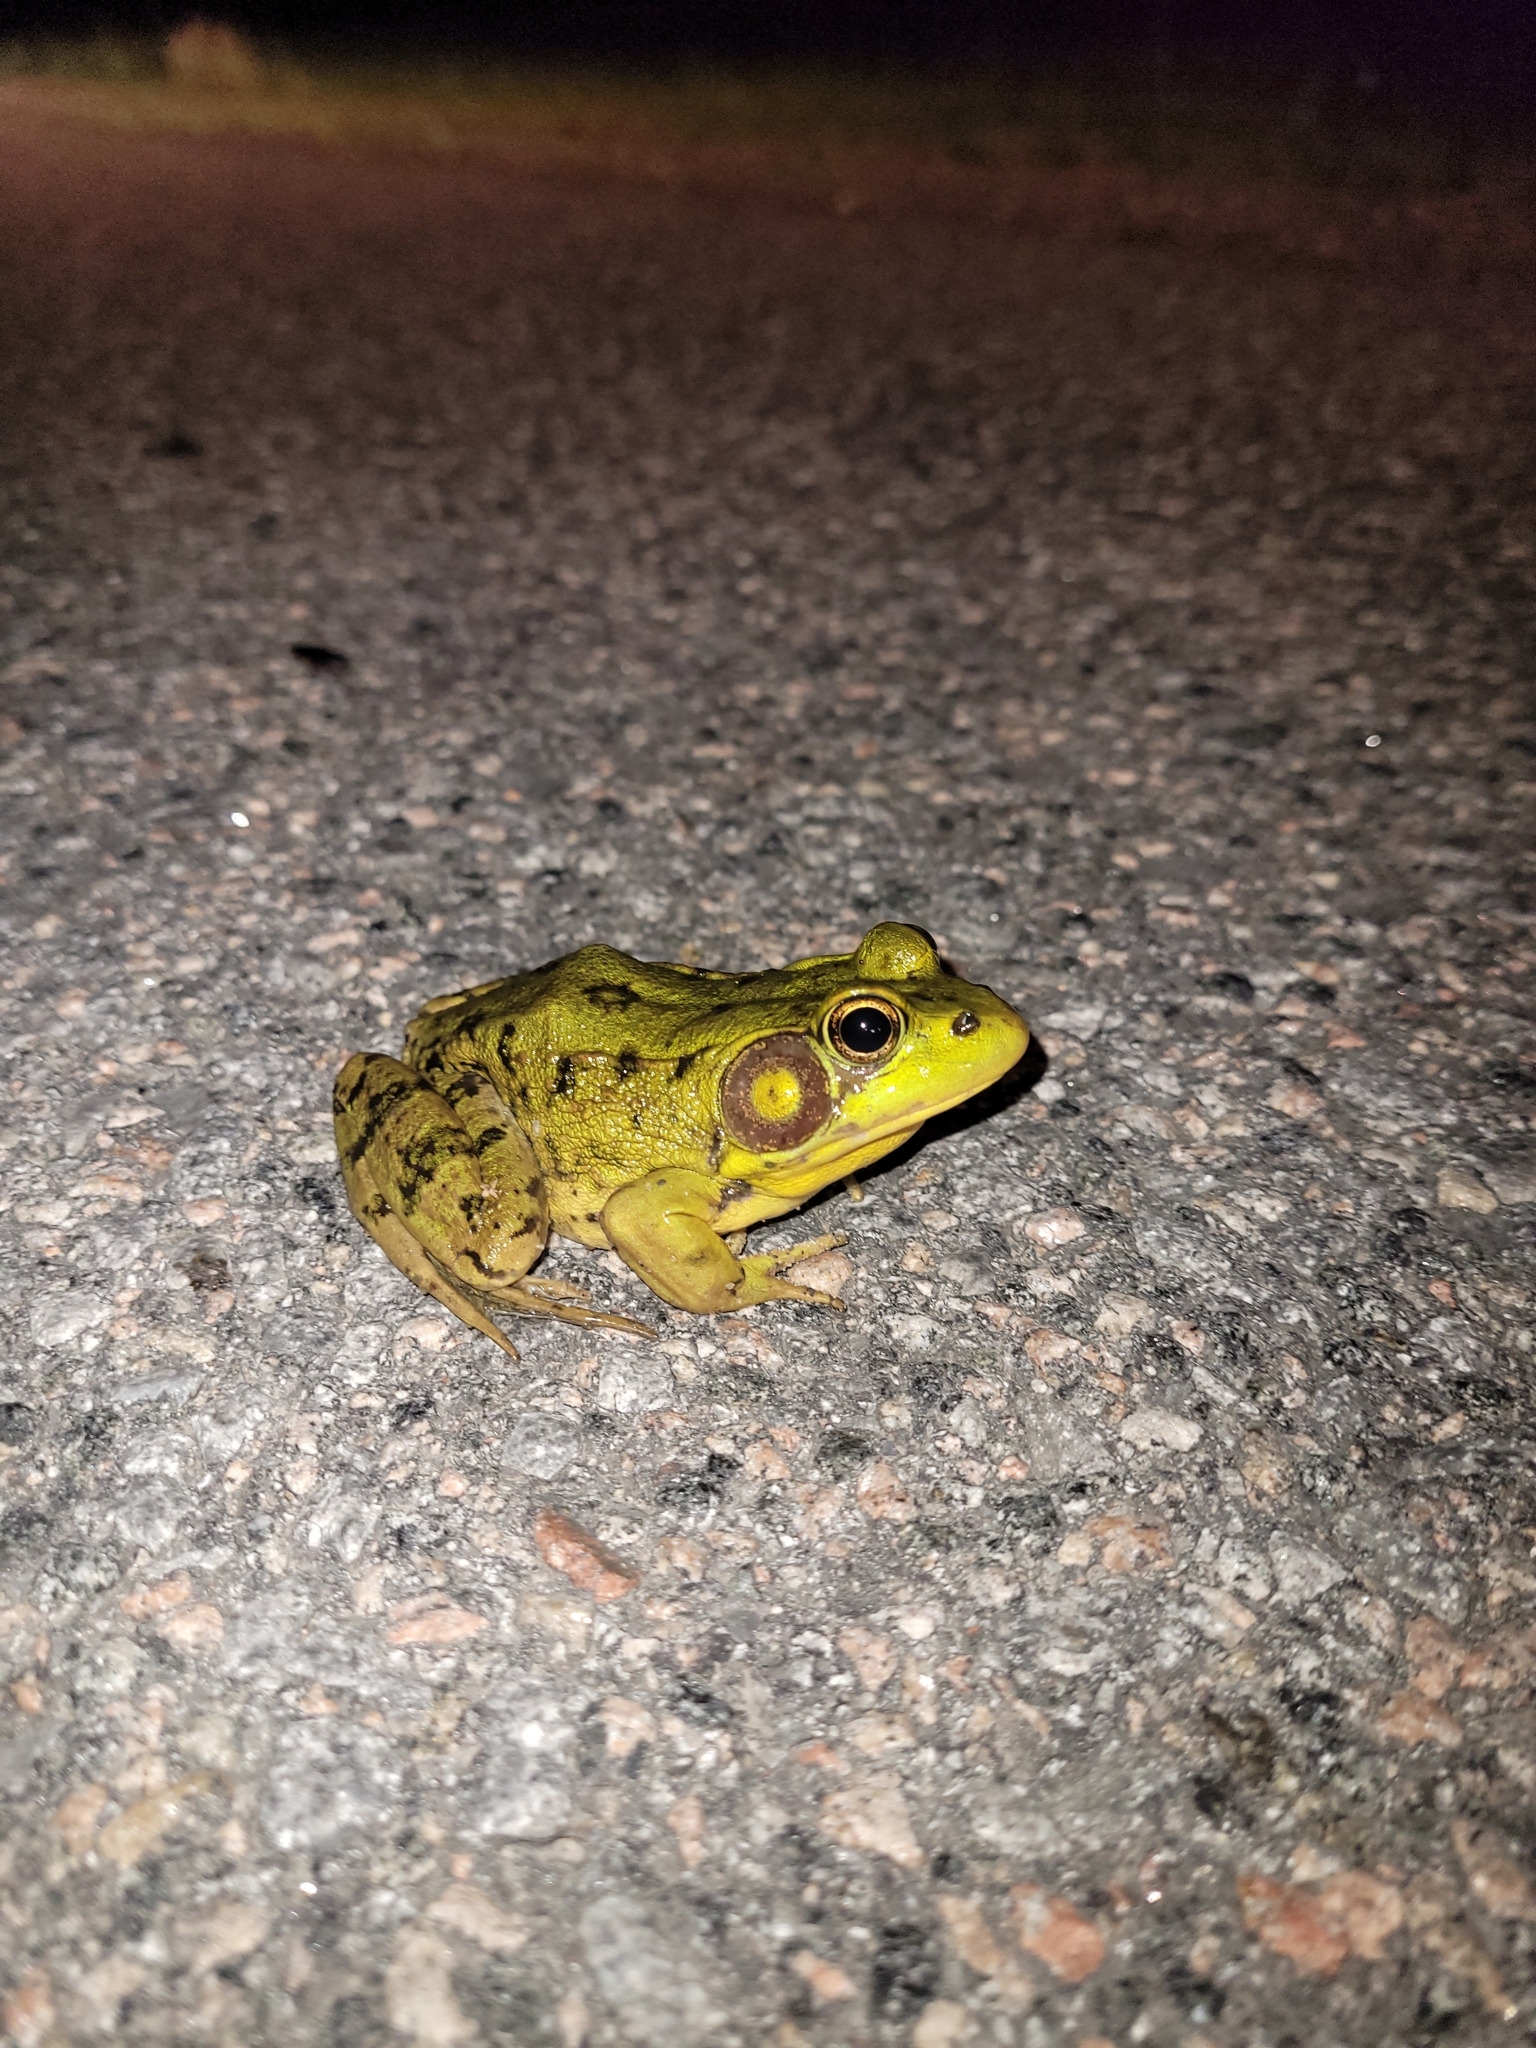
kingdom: Animalia
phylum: Chordata
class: Amphibia
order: Anura
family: Ranidae
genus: Lithobates
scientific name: Lithobates clamitans
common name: Green frog
